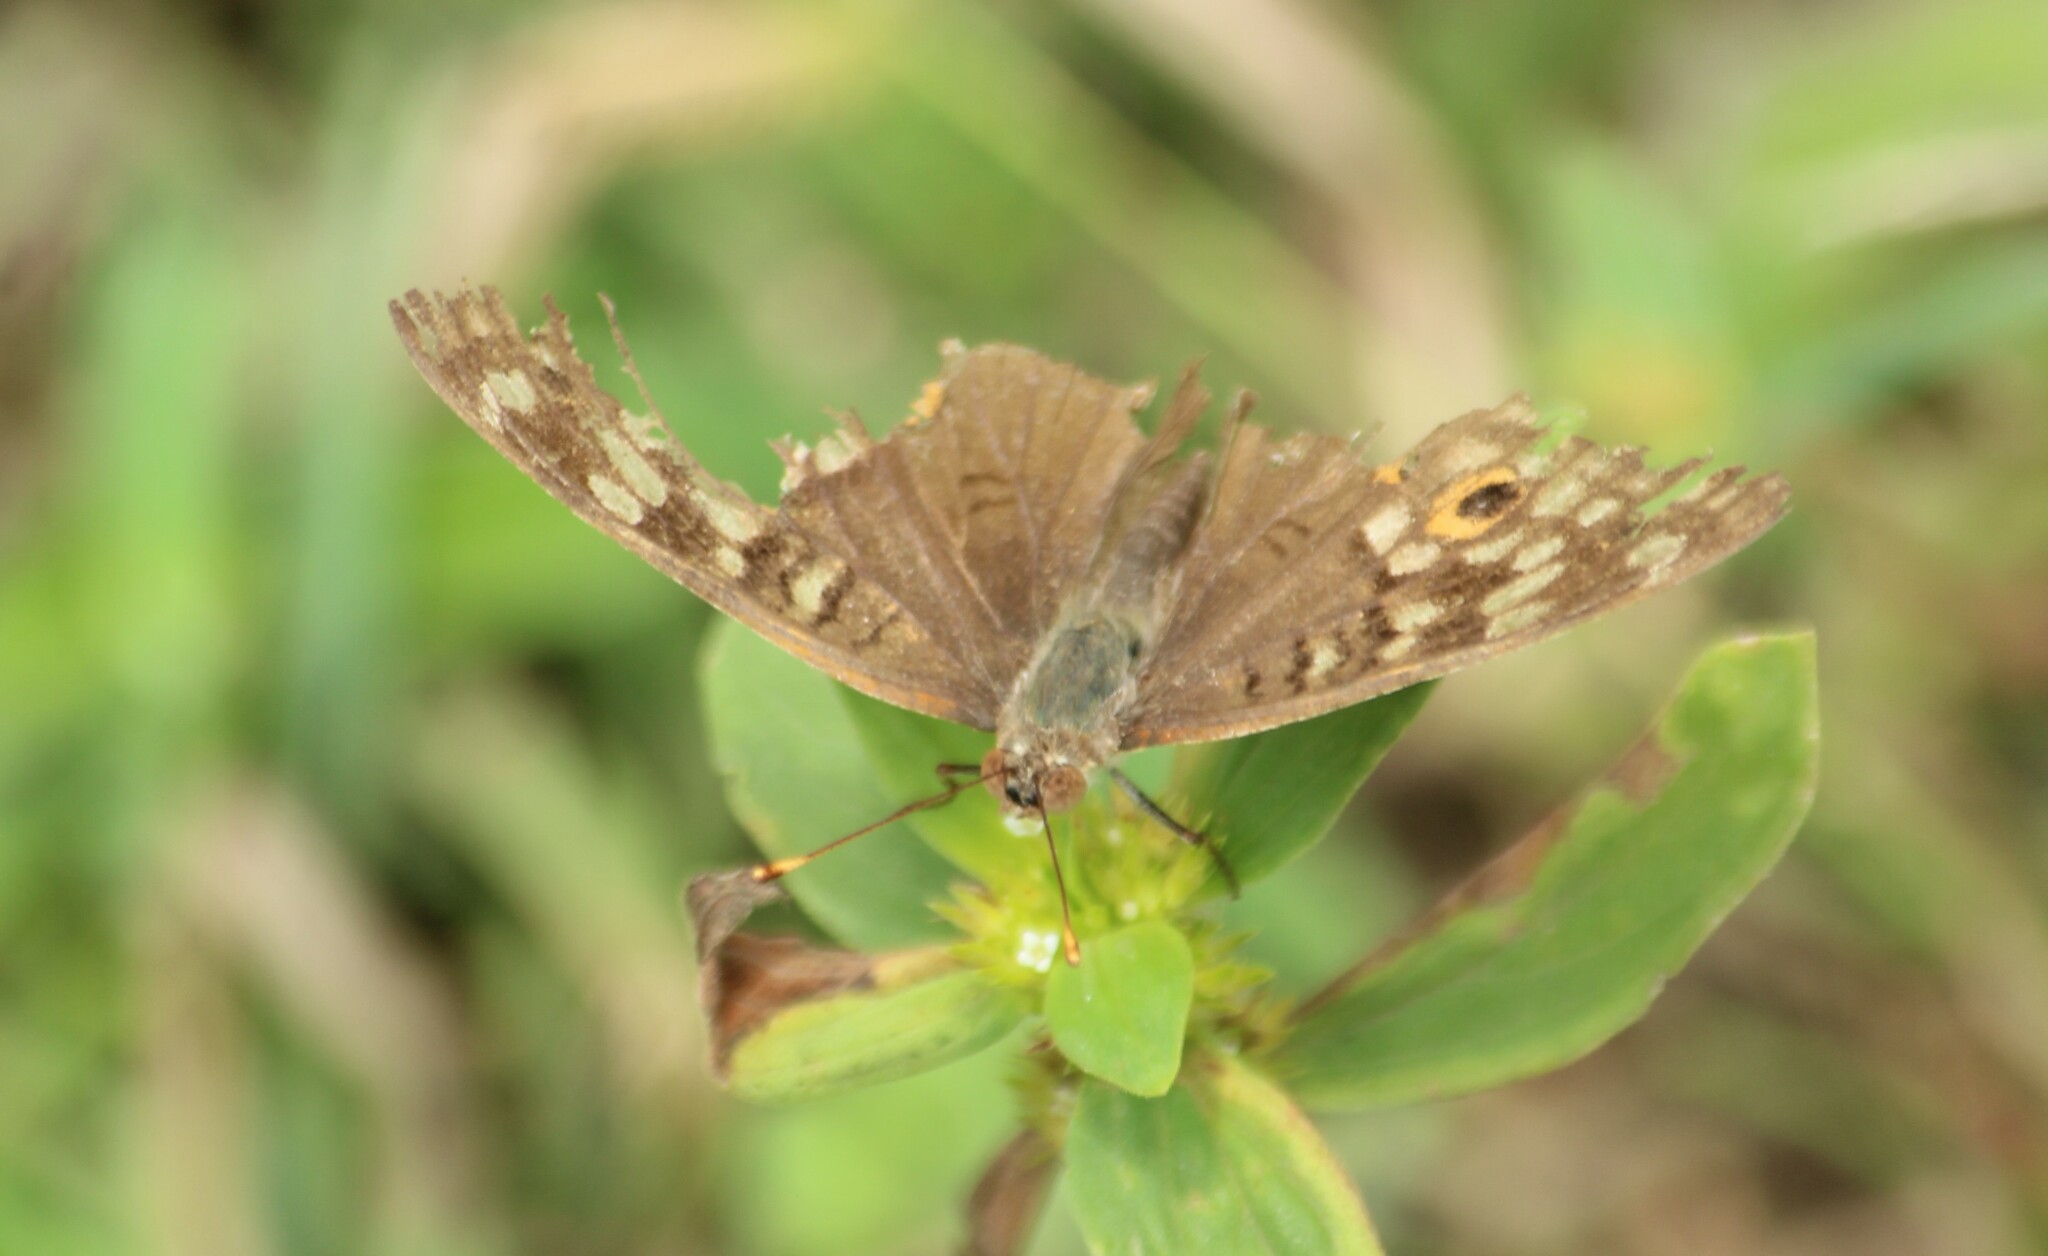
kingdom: Animalia
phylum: Arthropoda
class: Insecta
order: Lepidoptera
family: Nymphalidae
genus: Junonia
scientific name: Junonia lemonias
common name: Lemon pansy
